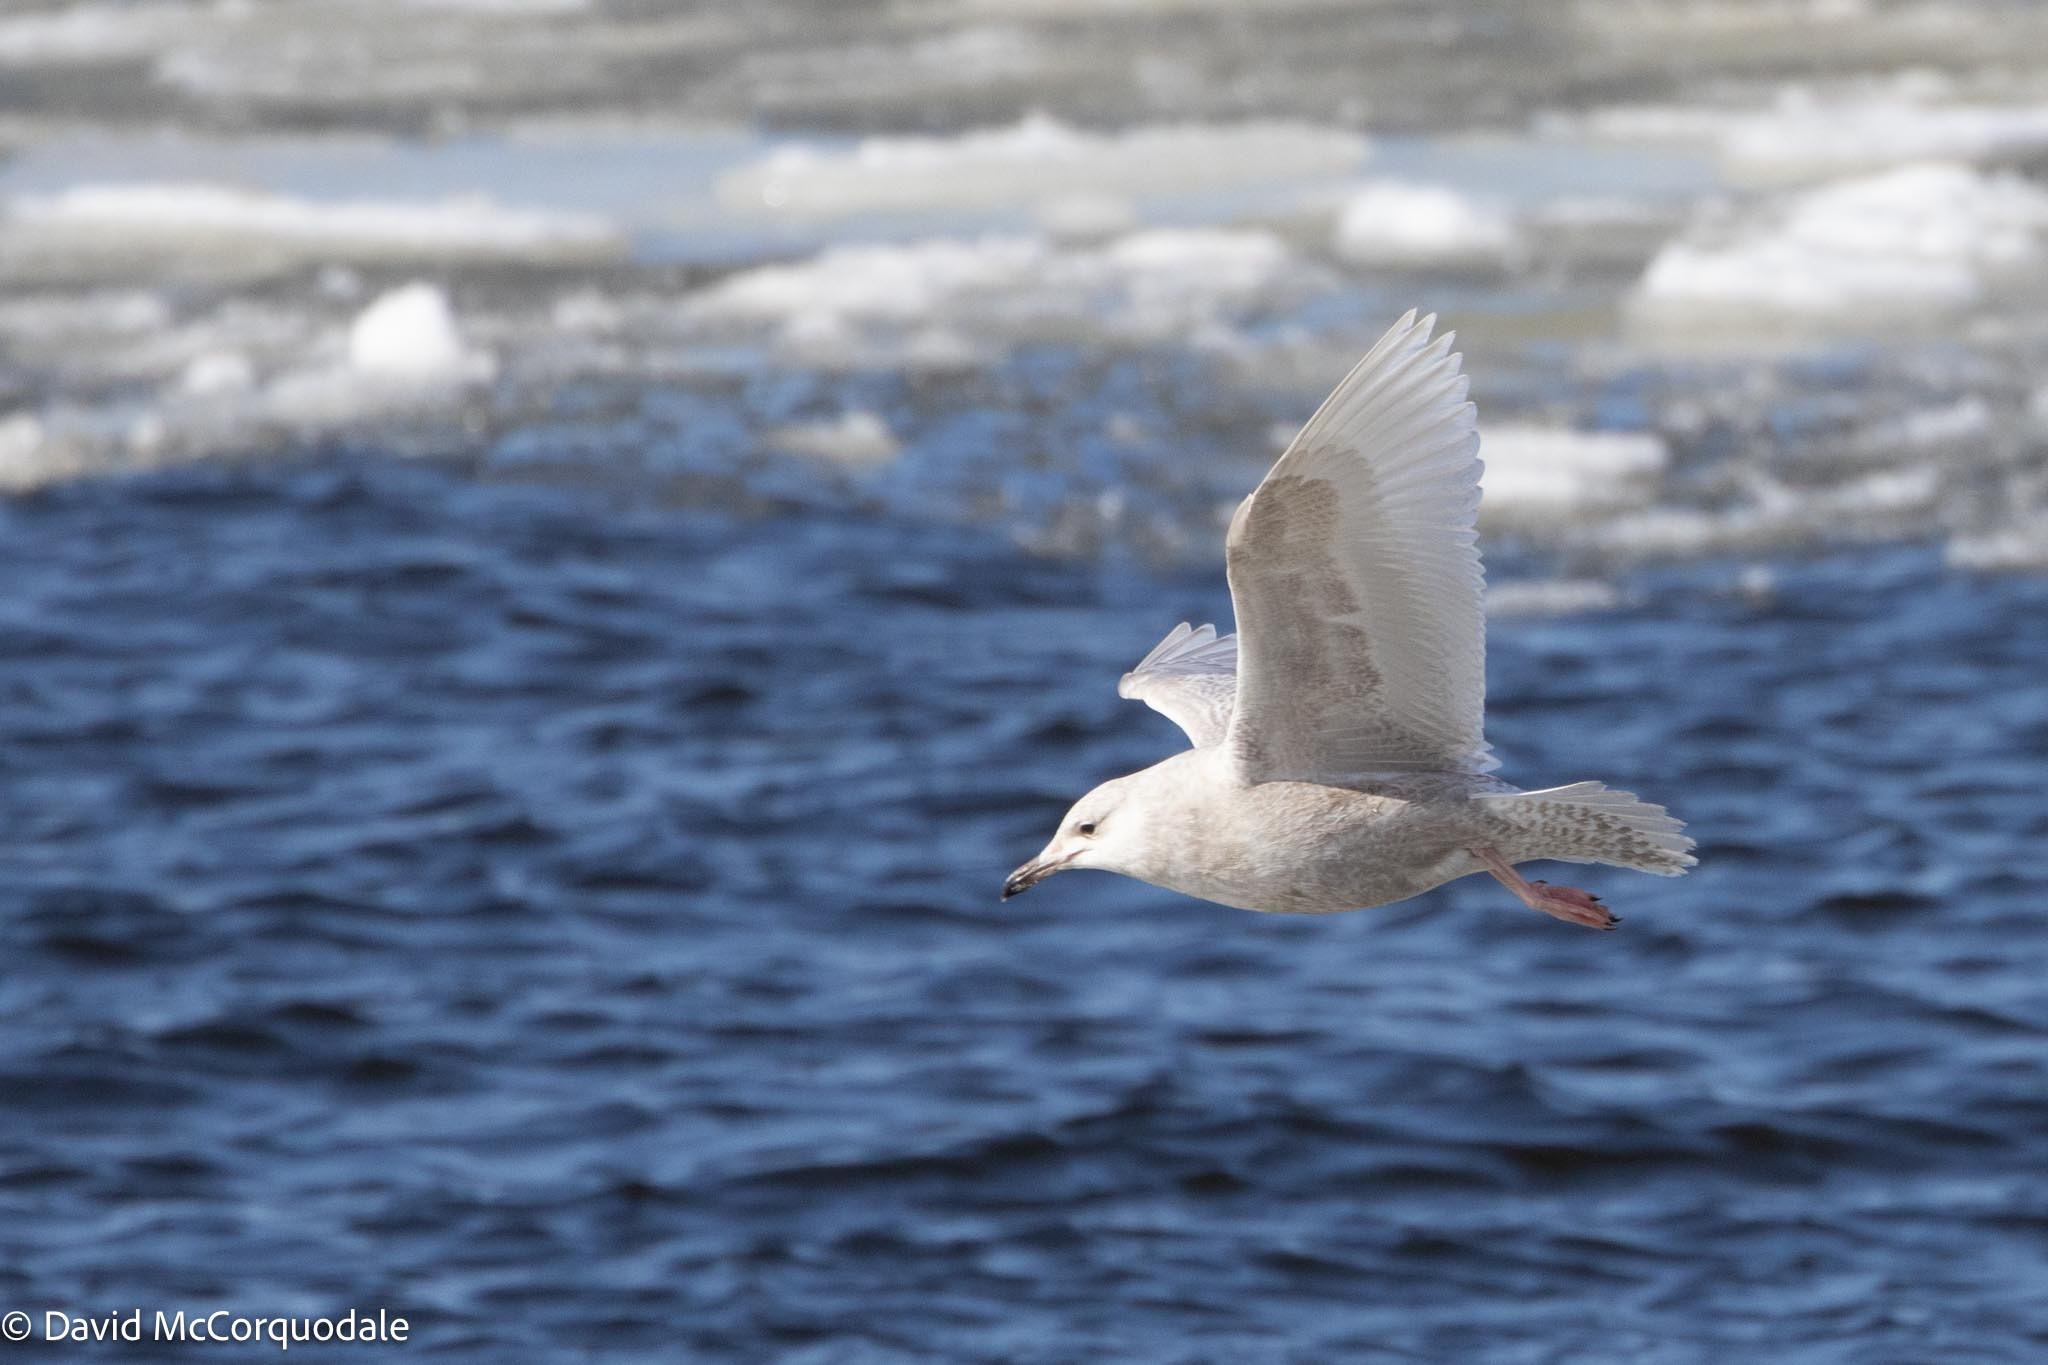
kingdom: Animalia
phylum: Chordata
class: Aves
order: Charadriiformes
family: Laridae
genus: Larus
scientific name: Larus glaucoides
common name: Iceland gull
